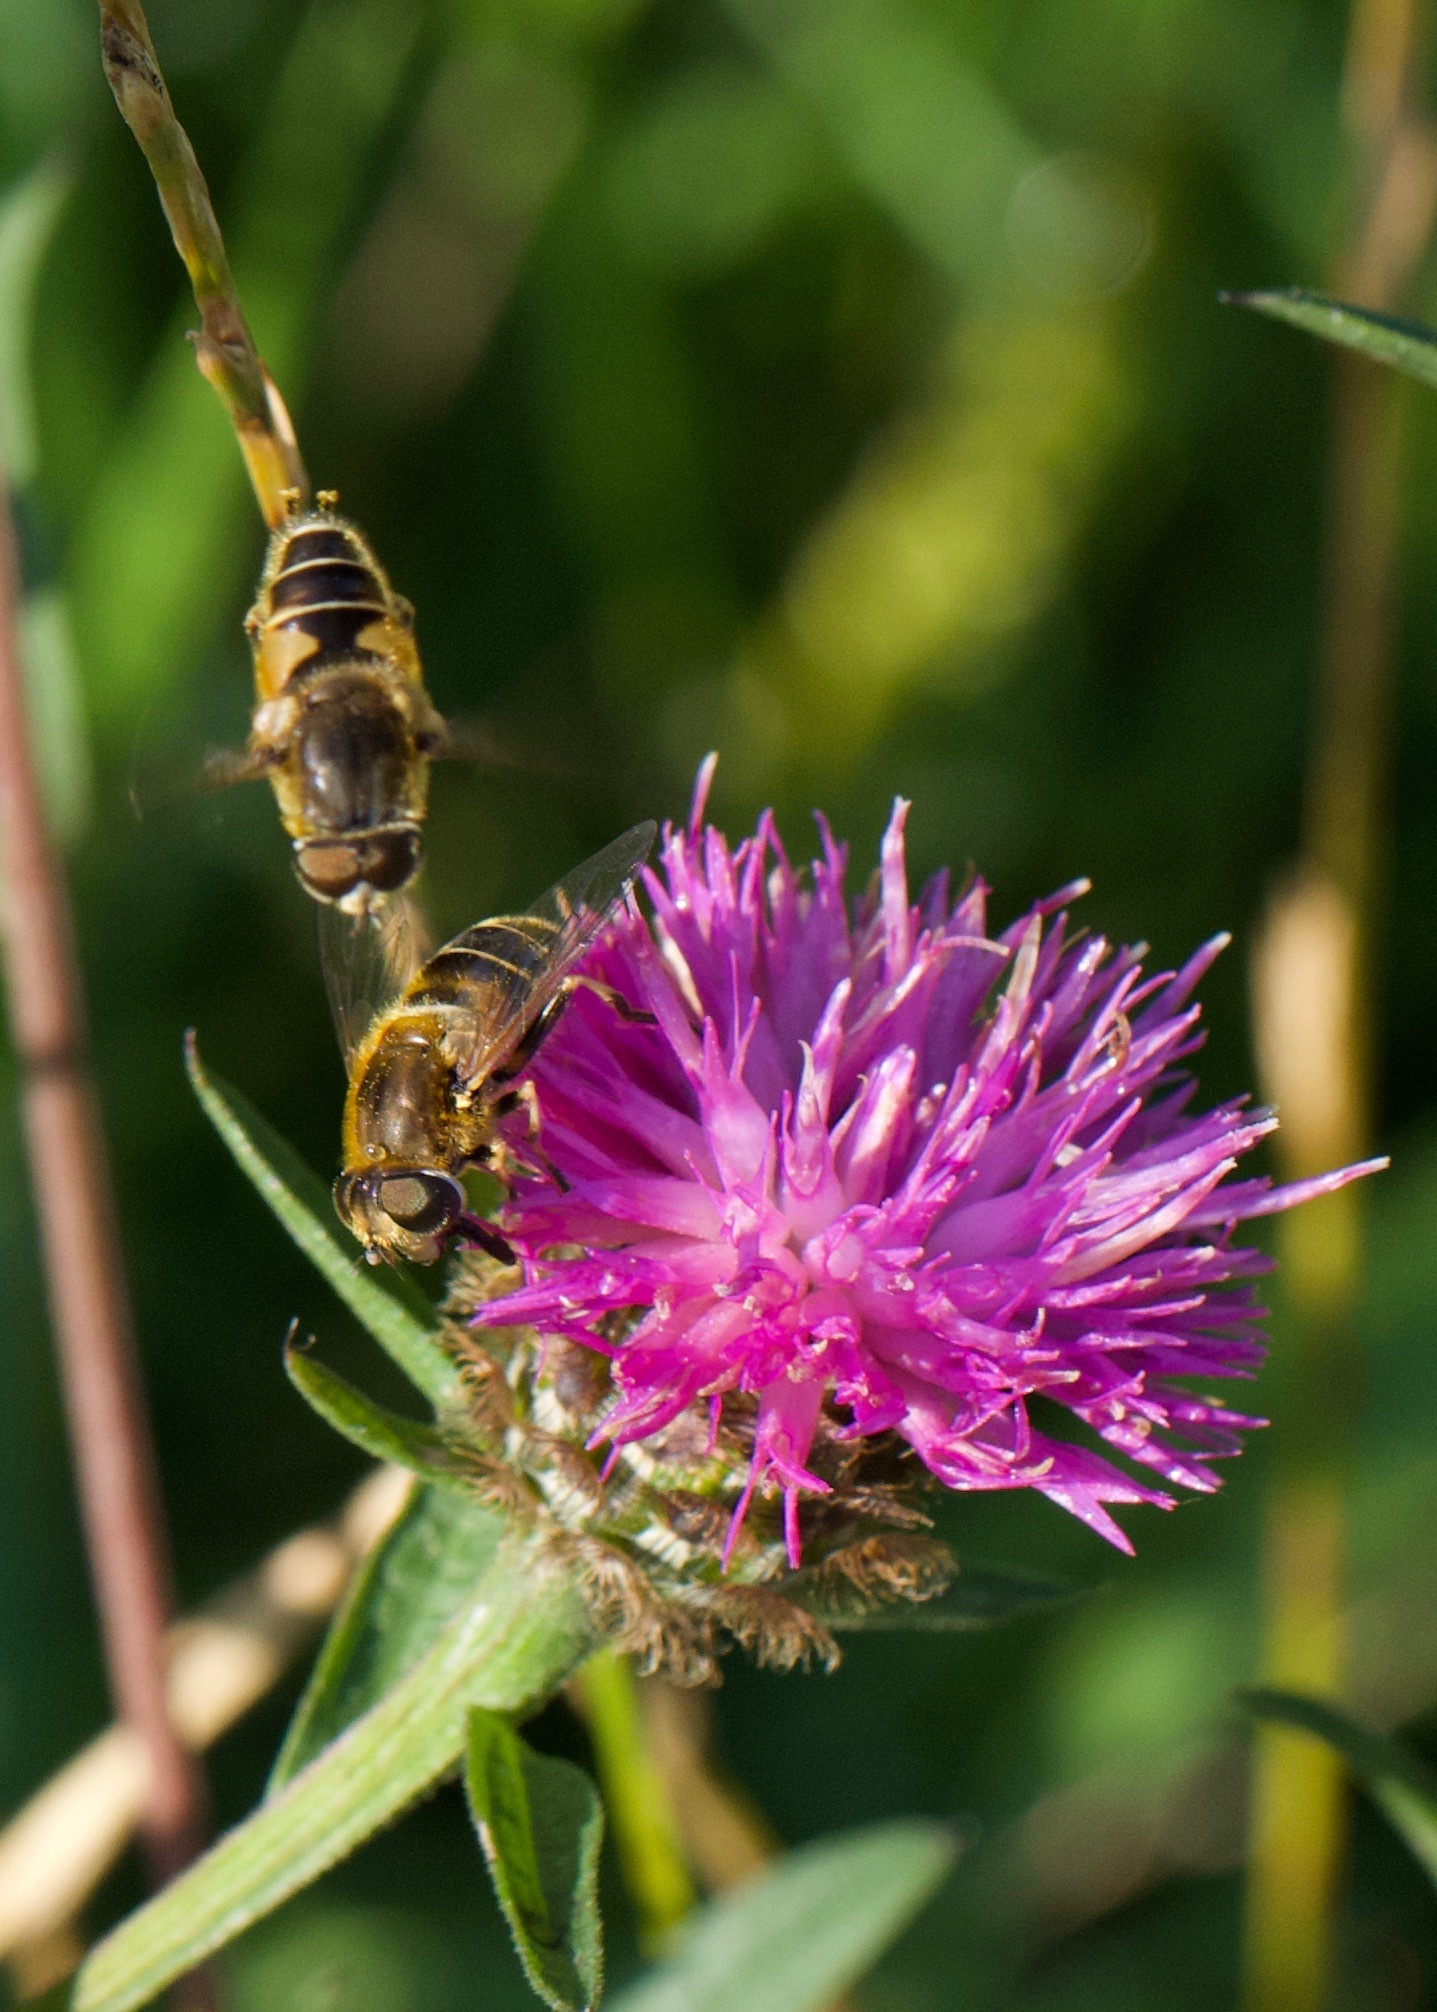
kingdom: Animalia
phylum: Arthropoda
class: Insecta
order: Diptera
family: Syrphidae
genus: Eristalis
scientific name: Eristalis nemorum
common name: Orange-spined drone fly
